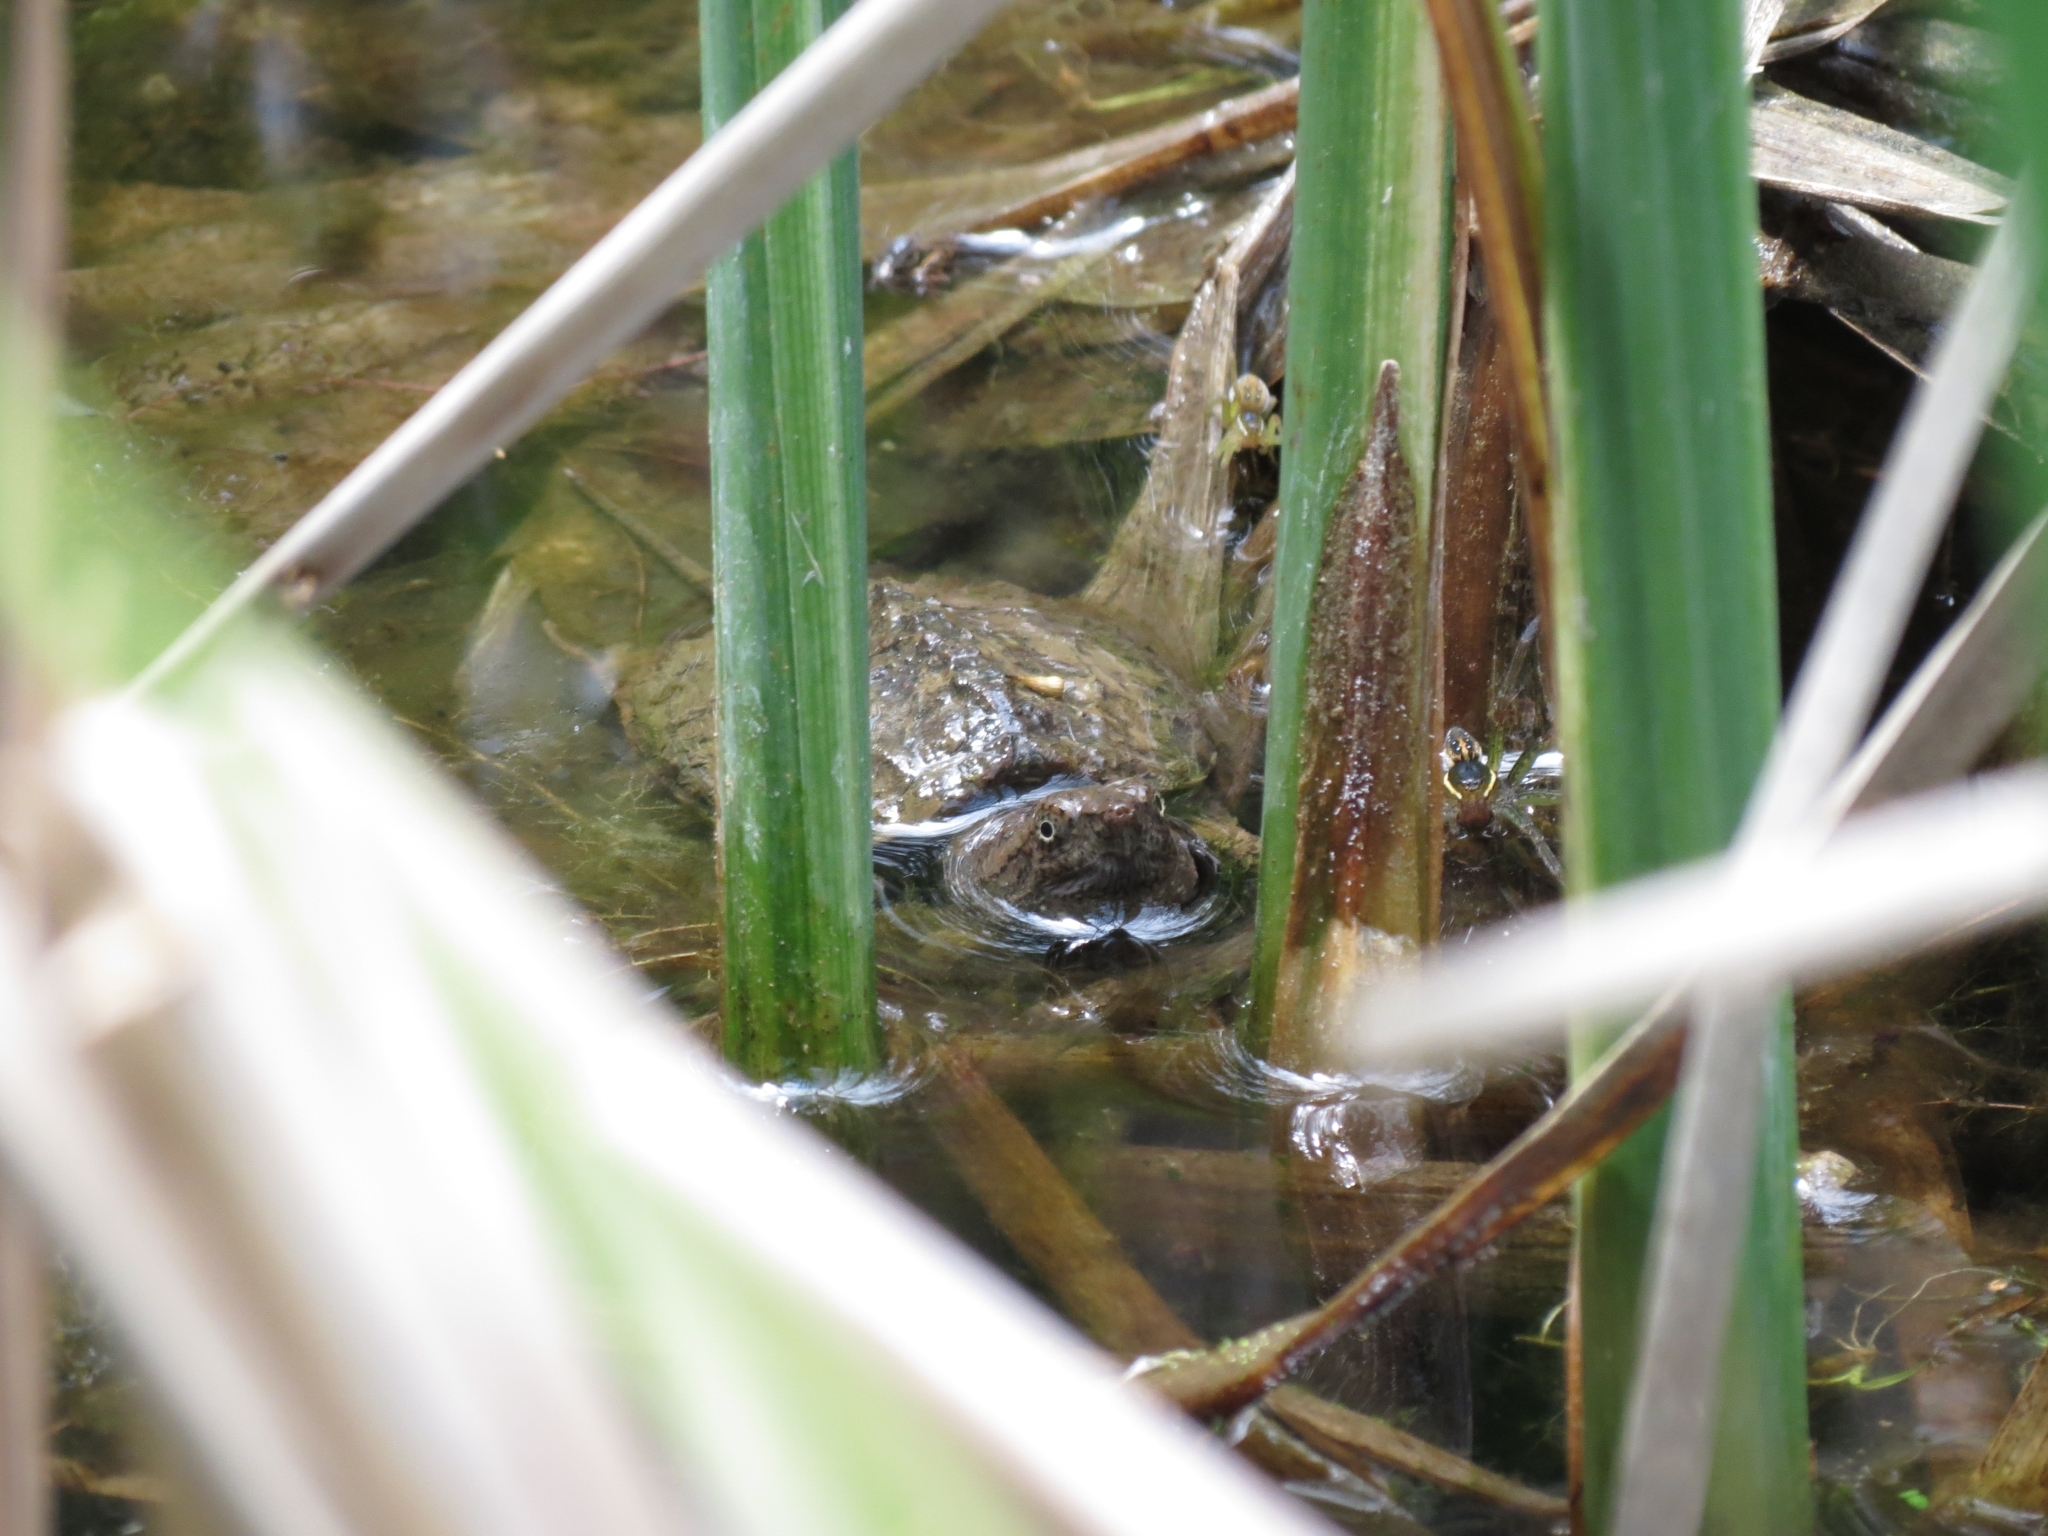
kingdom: Animalia
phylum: Chordata
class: Testudines
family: Chelydridae
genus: Chelydra
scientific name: Chelydra serpentina
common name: Common snapping turtle
